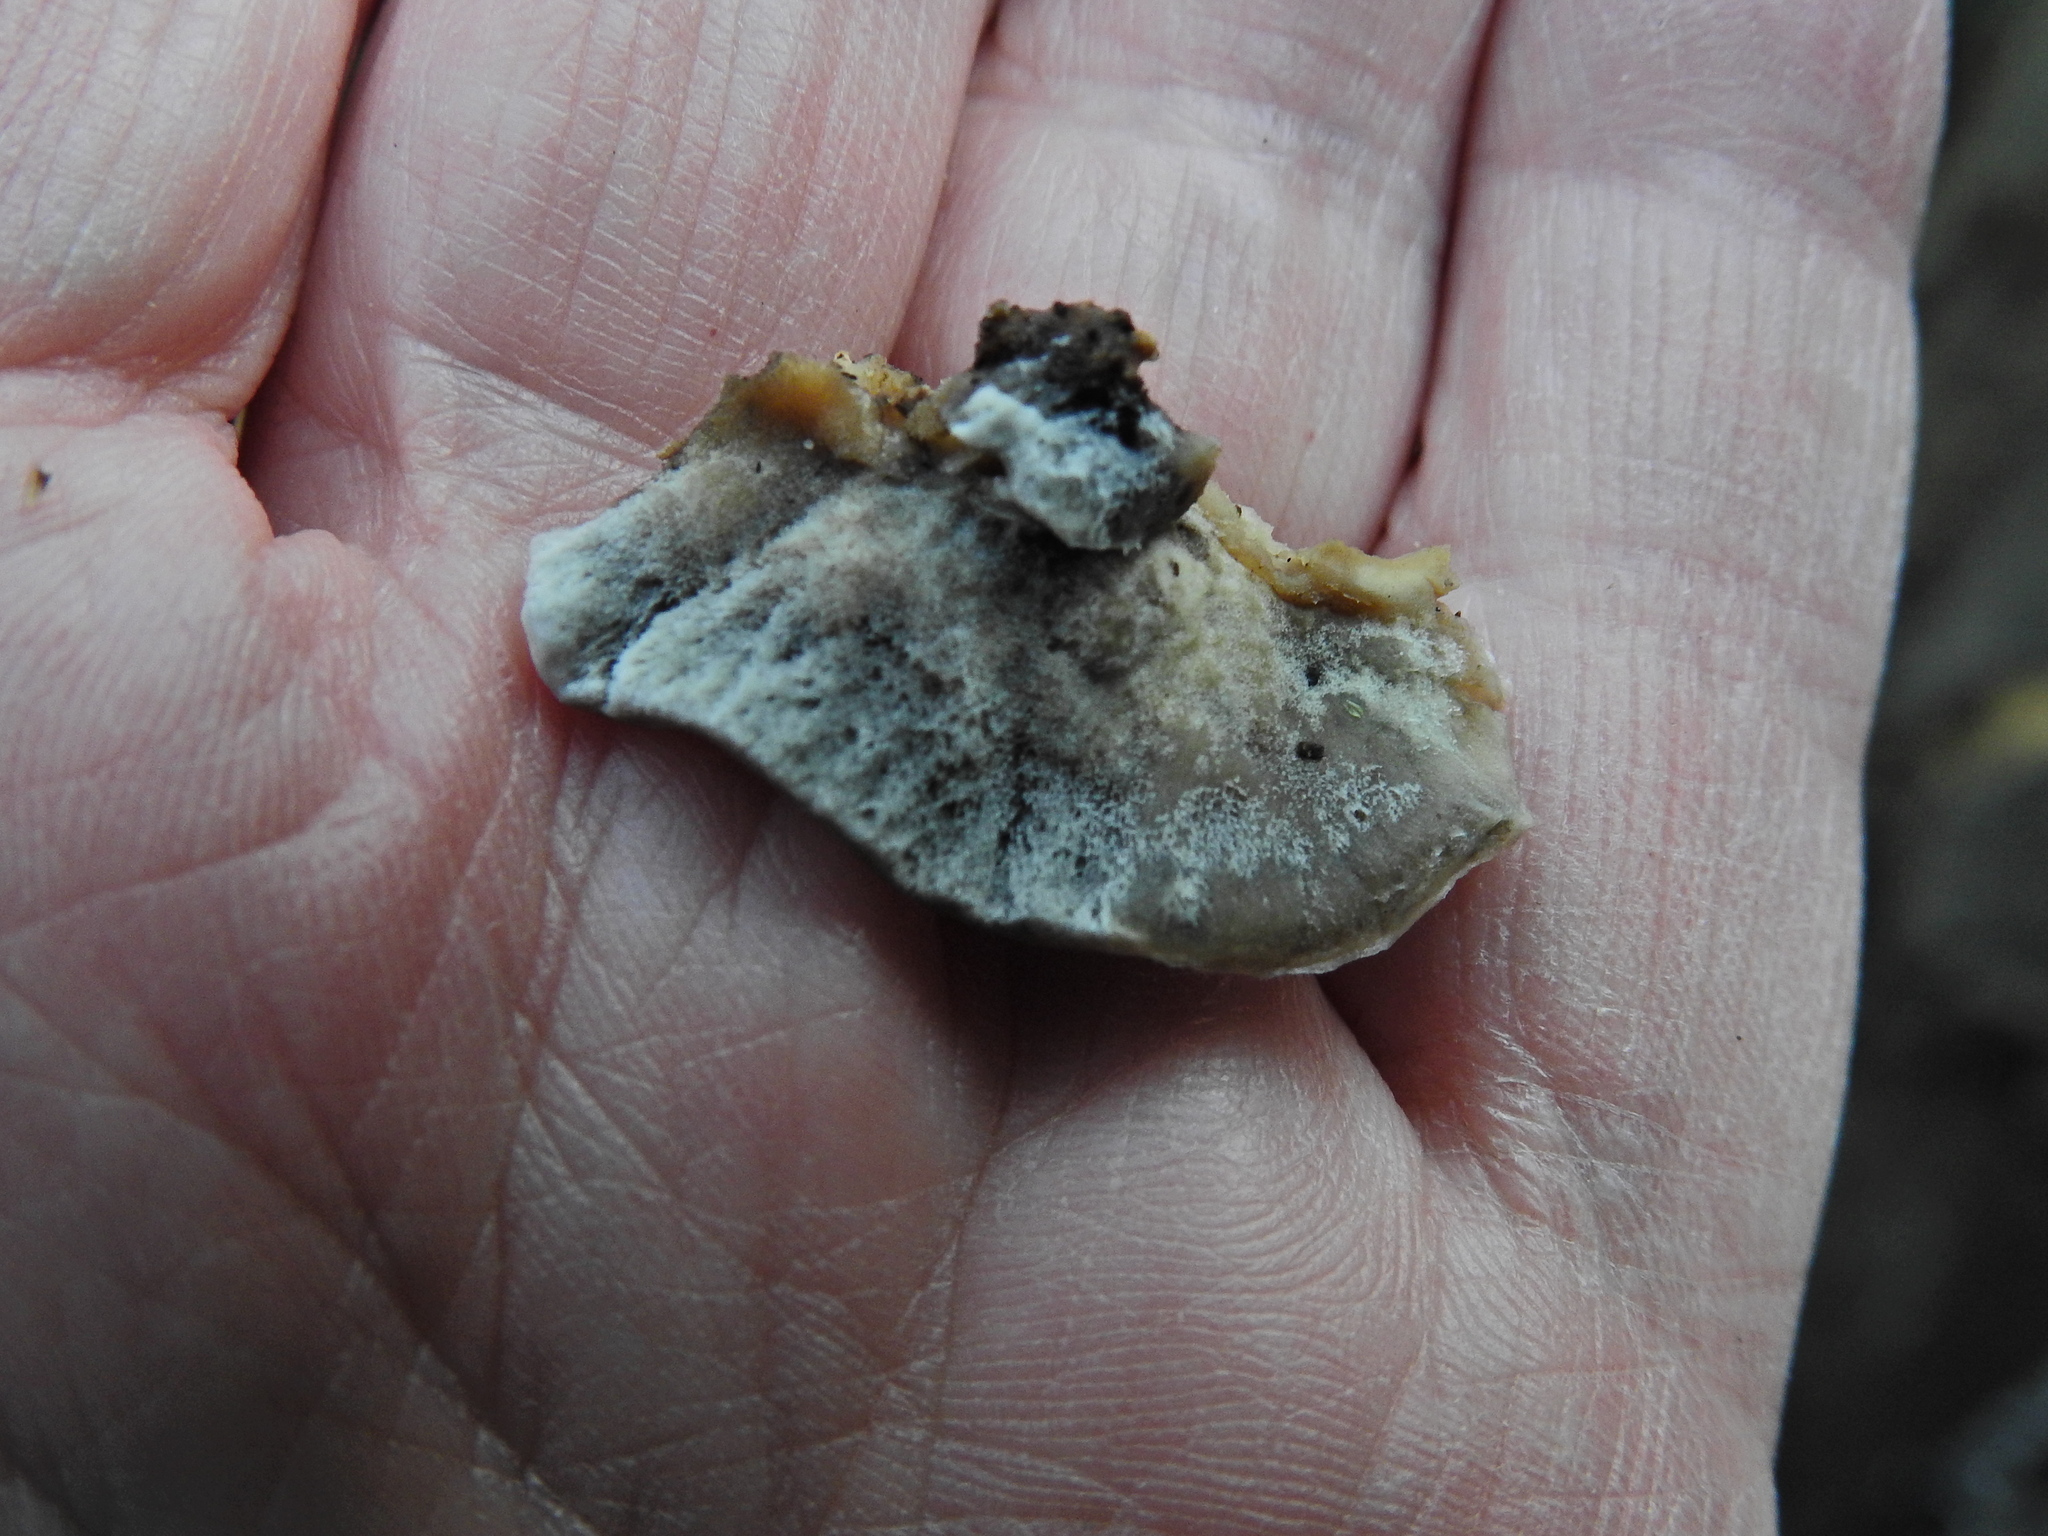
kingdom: Fungi
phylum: Basidiomycota
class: Agaricomycetes
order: Polyporales
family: Phanerochaetaceae
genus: Bjerkandera
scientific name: Bjerkandera adusta
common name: Smoky bracket
